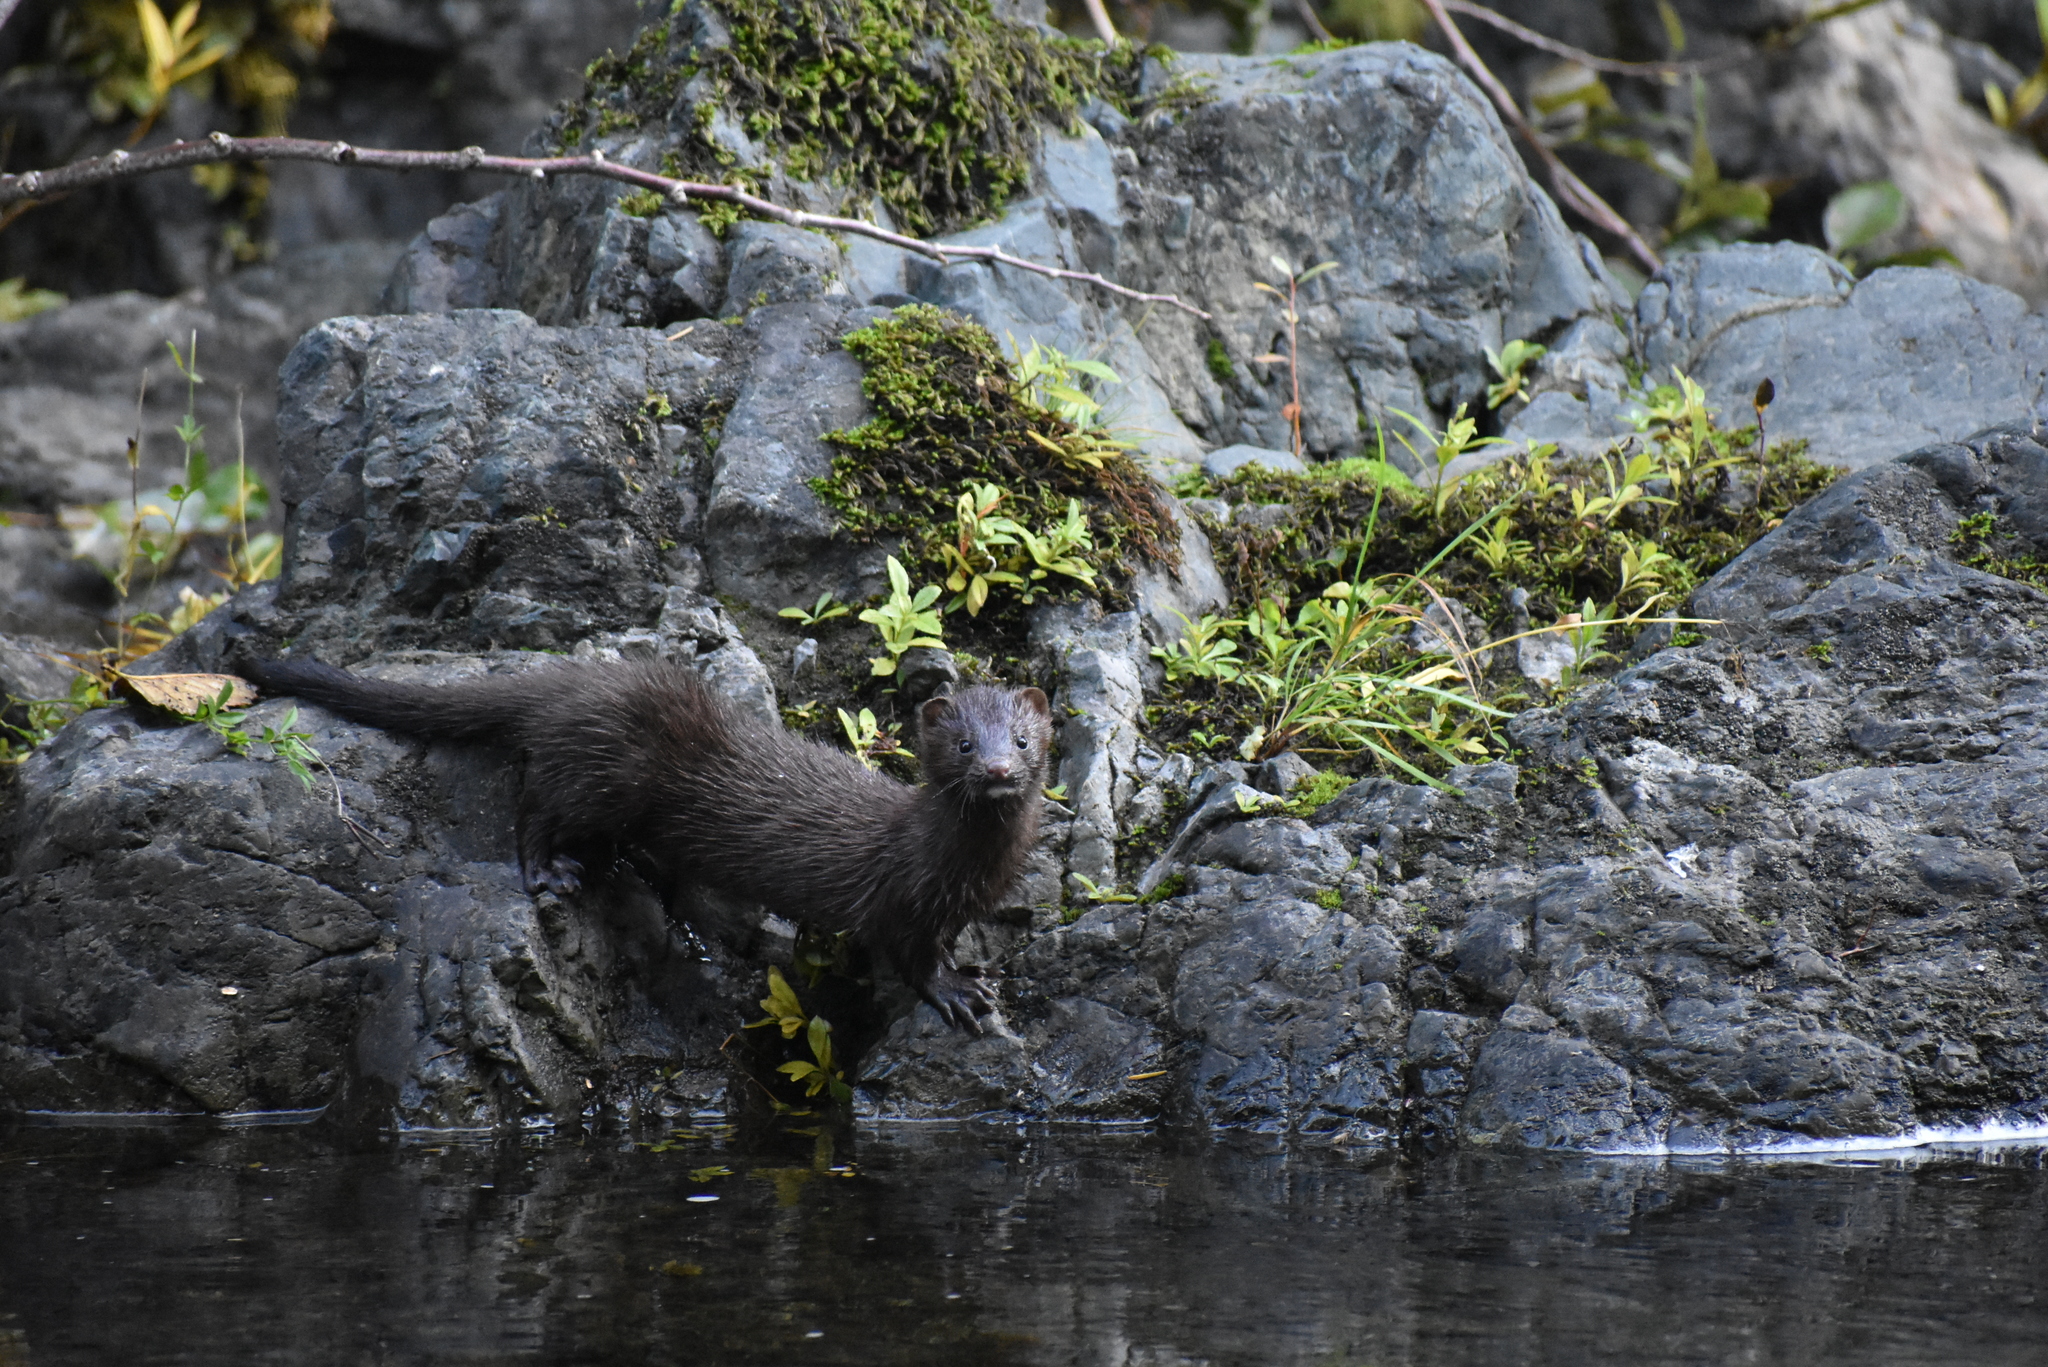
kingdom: Animalia
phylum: Chordata
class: Mammalia
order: Carnivora
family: Mustelidae
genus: Mustela
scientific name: Mustela
